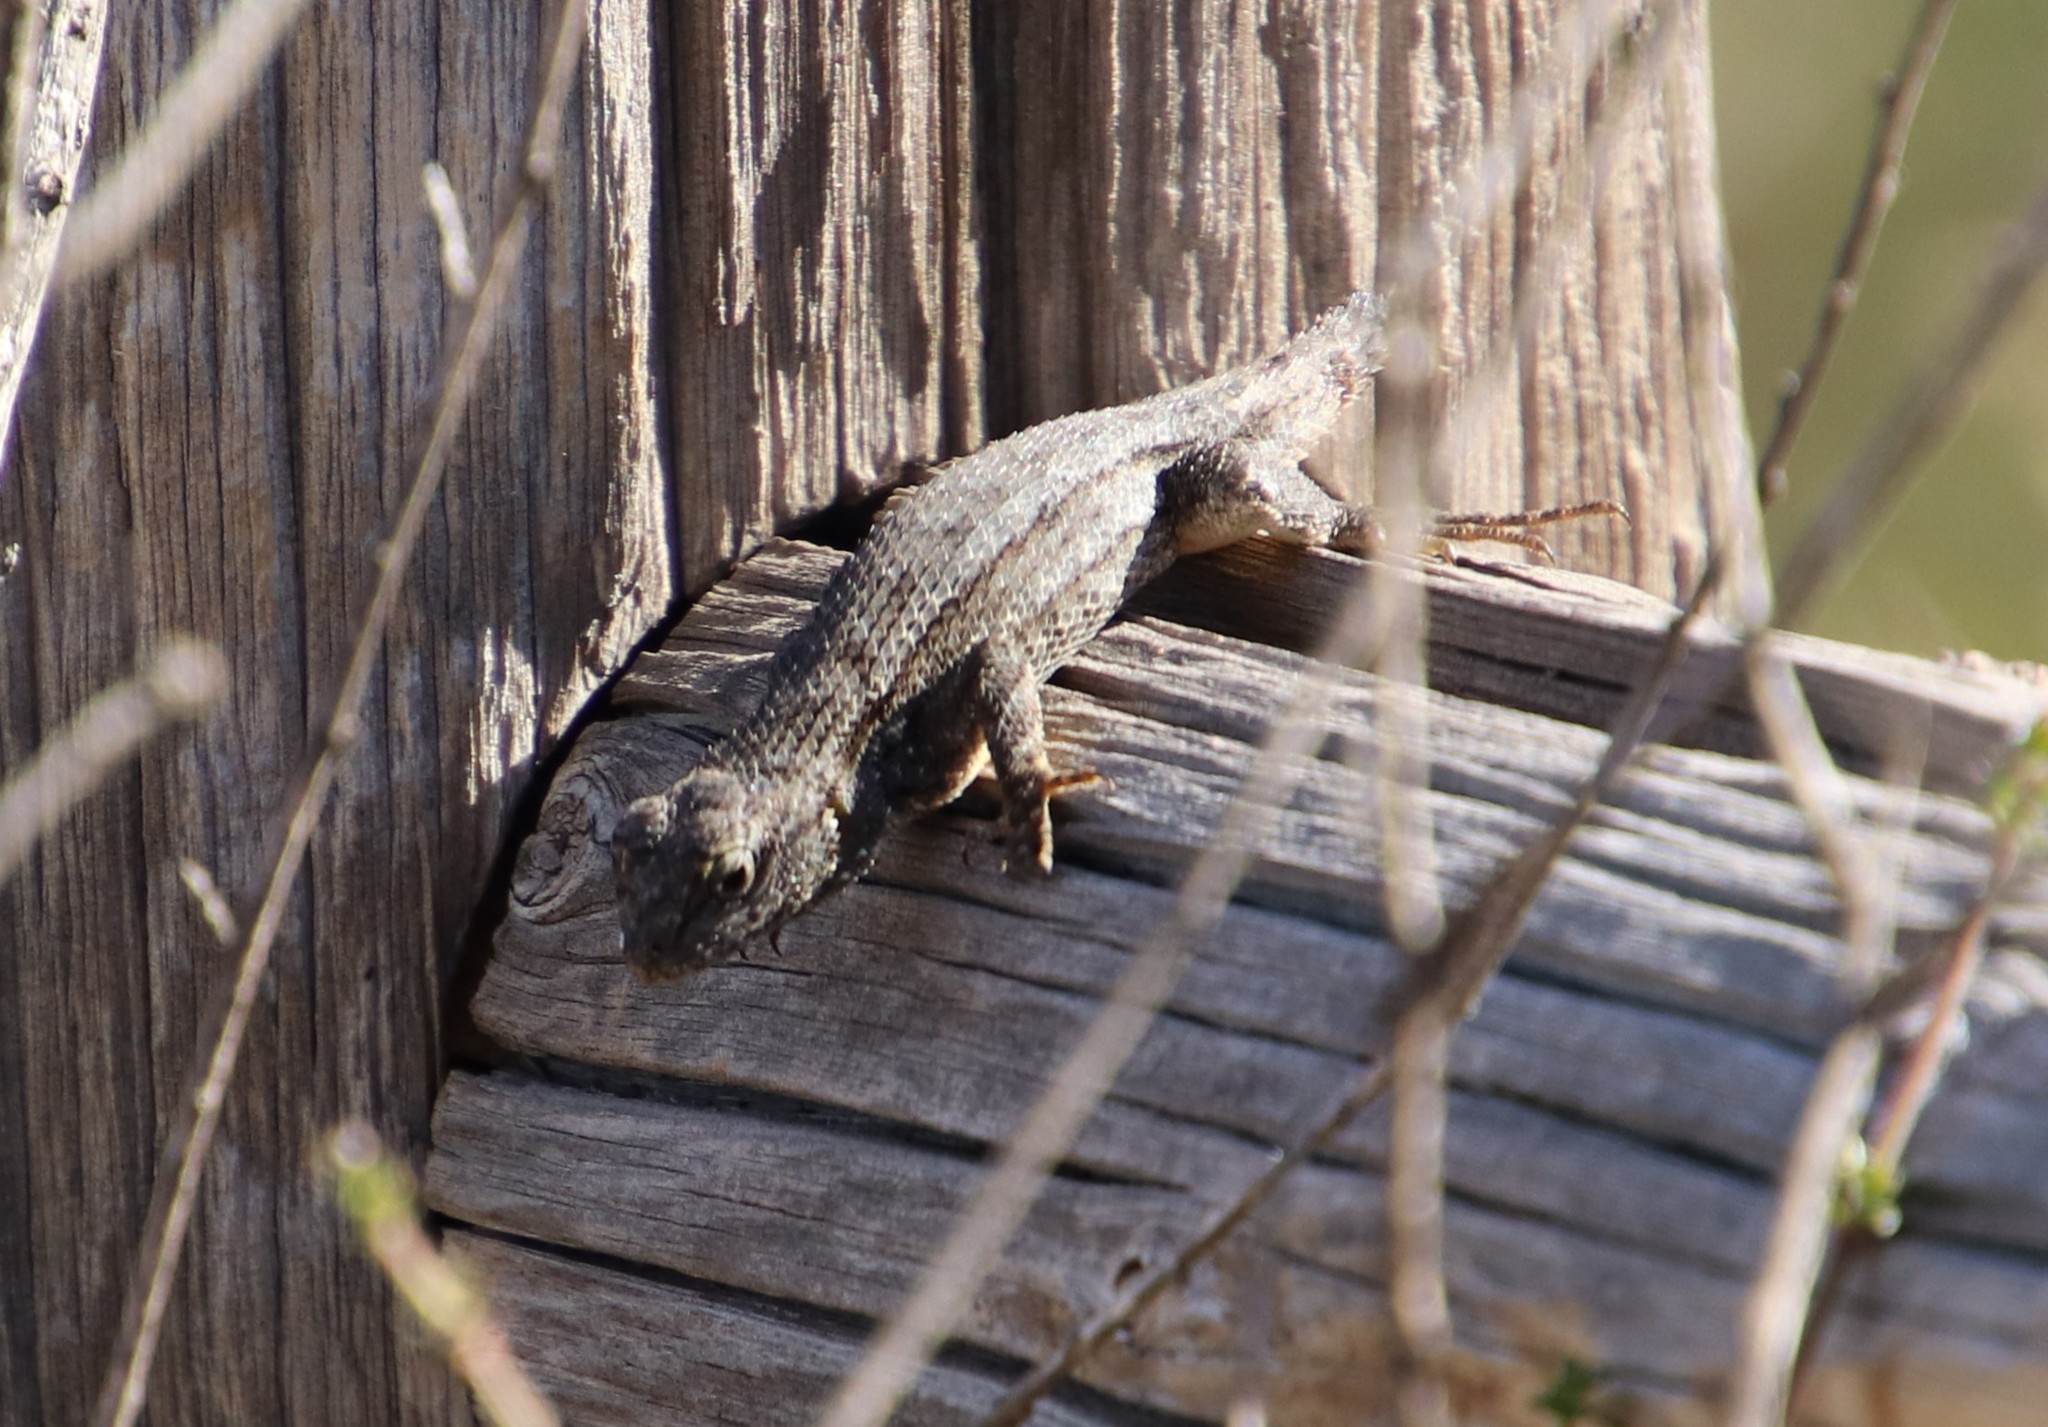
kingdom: Animalia
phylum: Chordata
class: Squamata
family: Phrynosomatidae
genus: Sceloporus
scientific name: Sceloporus occidentalis
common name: Western fence lizard
